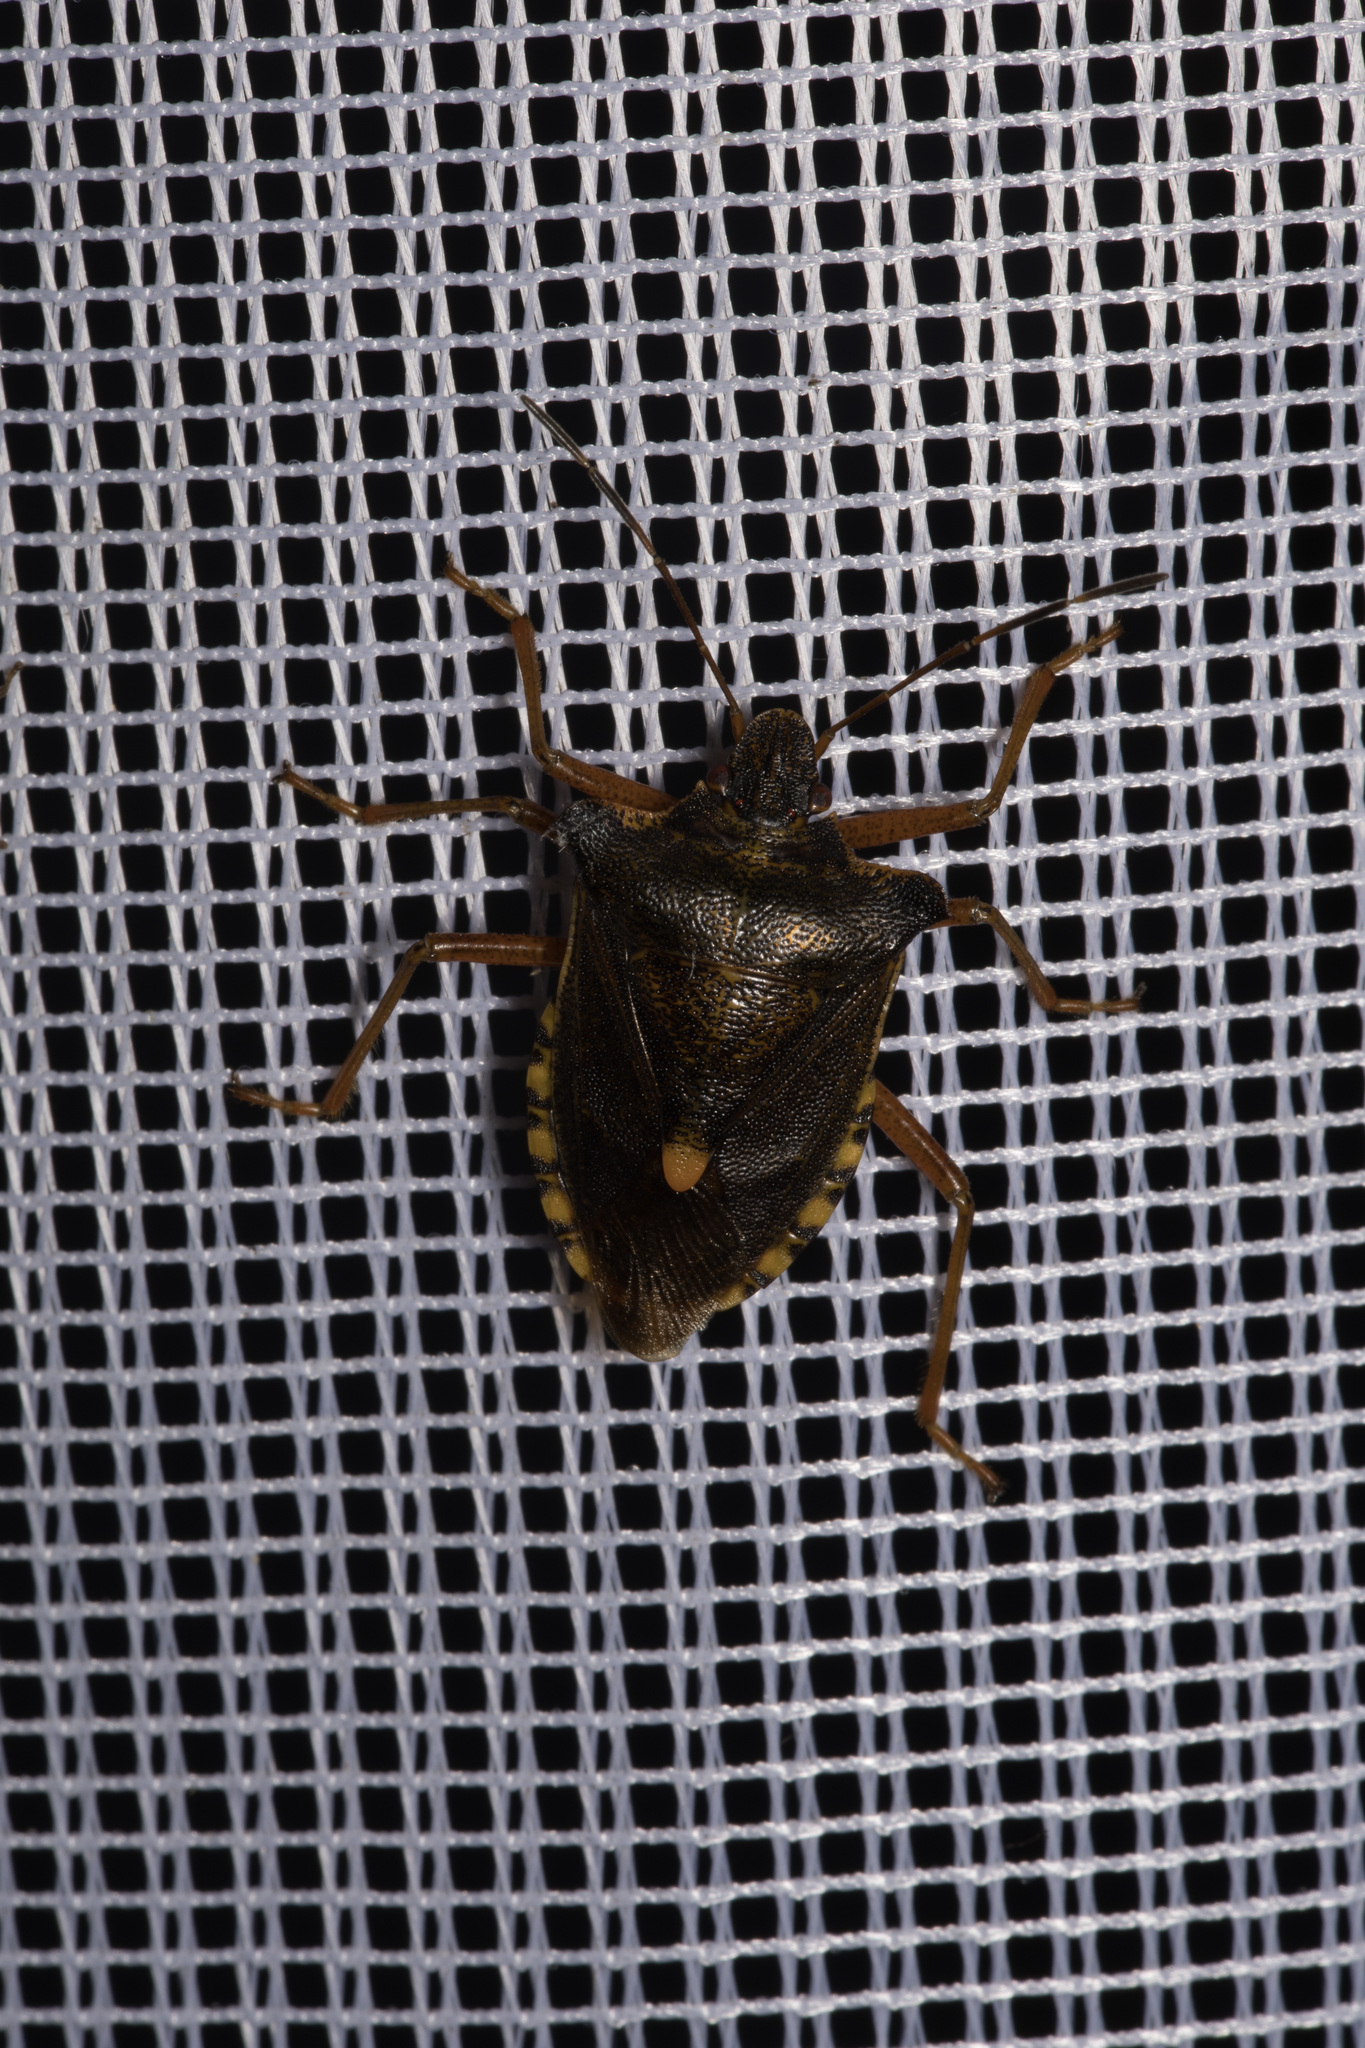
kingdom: Animalia
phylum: Arthropoda
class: Insecta
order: Hemiptera
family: Pentatomidae
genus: Pentatoma
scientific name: Pentatoma rufipes
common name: Forest bug
